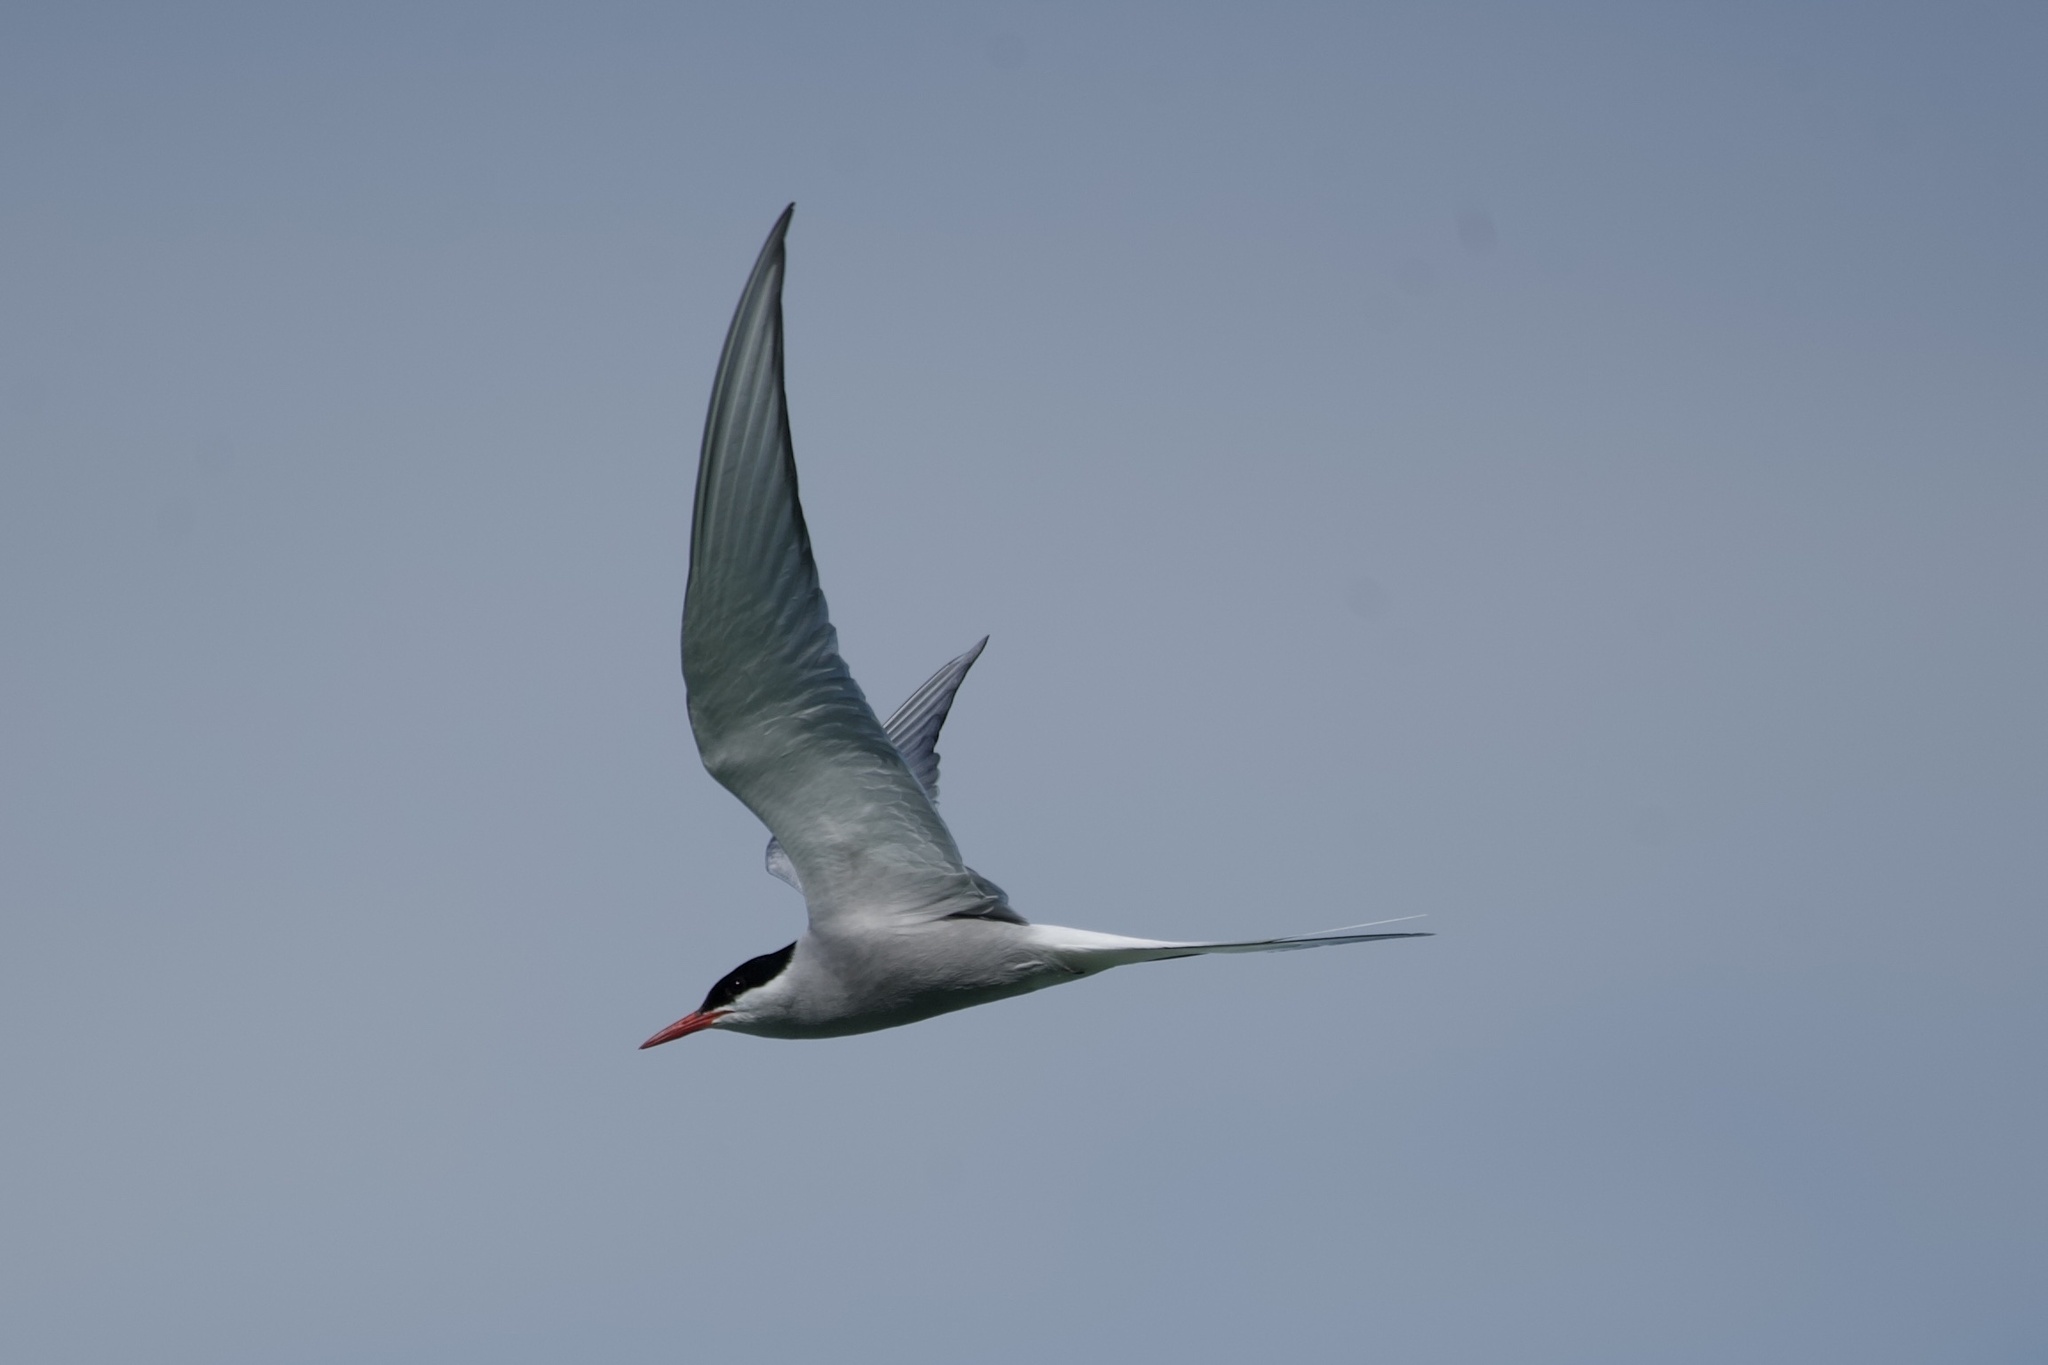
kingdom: Animalia
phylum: Chordata
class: Aves
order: Charadriiformes
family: Laridae
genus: Sterna
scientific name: Sterna paradisaea
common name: Arctic tern
